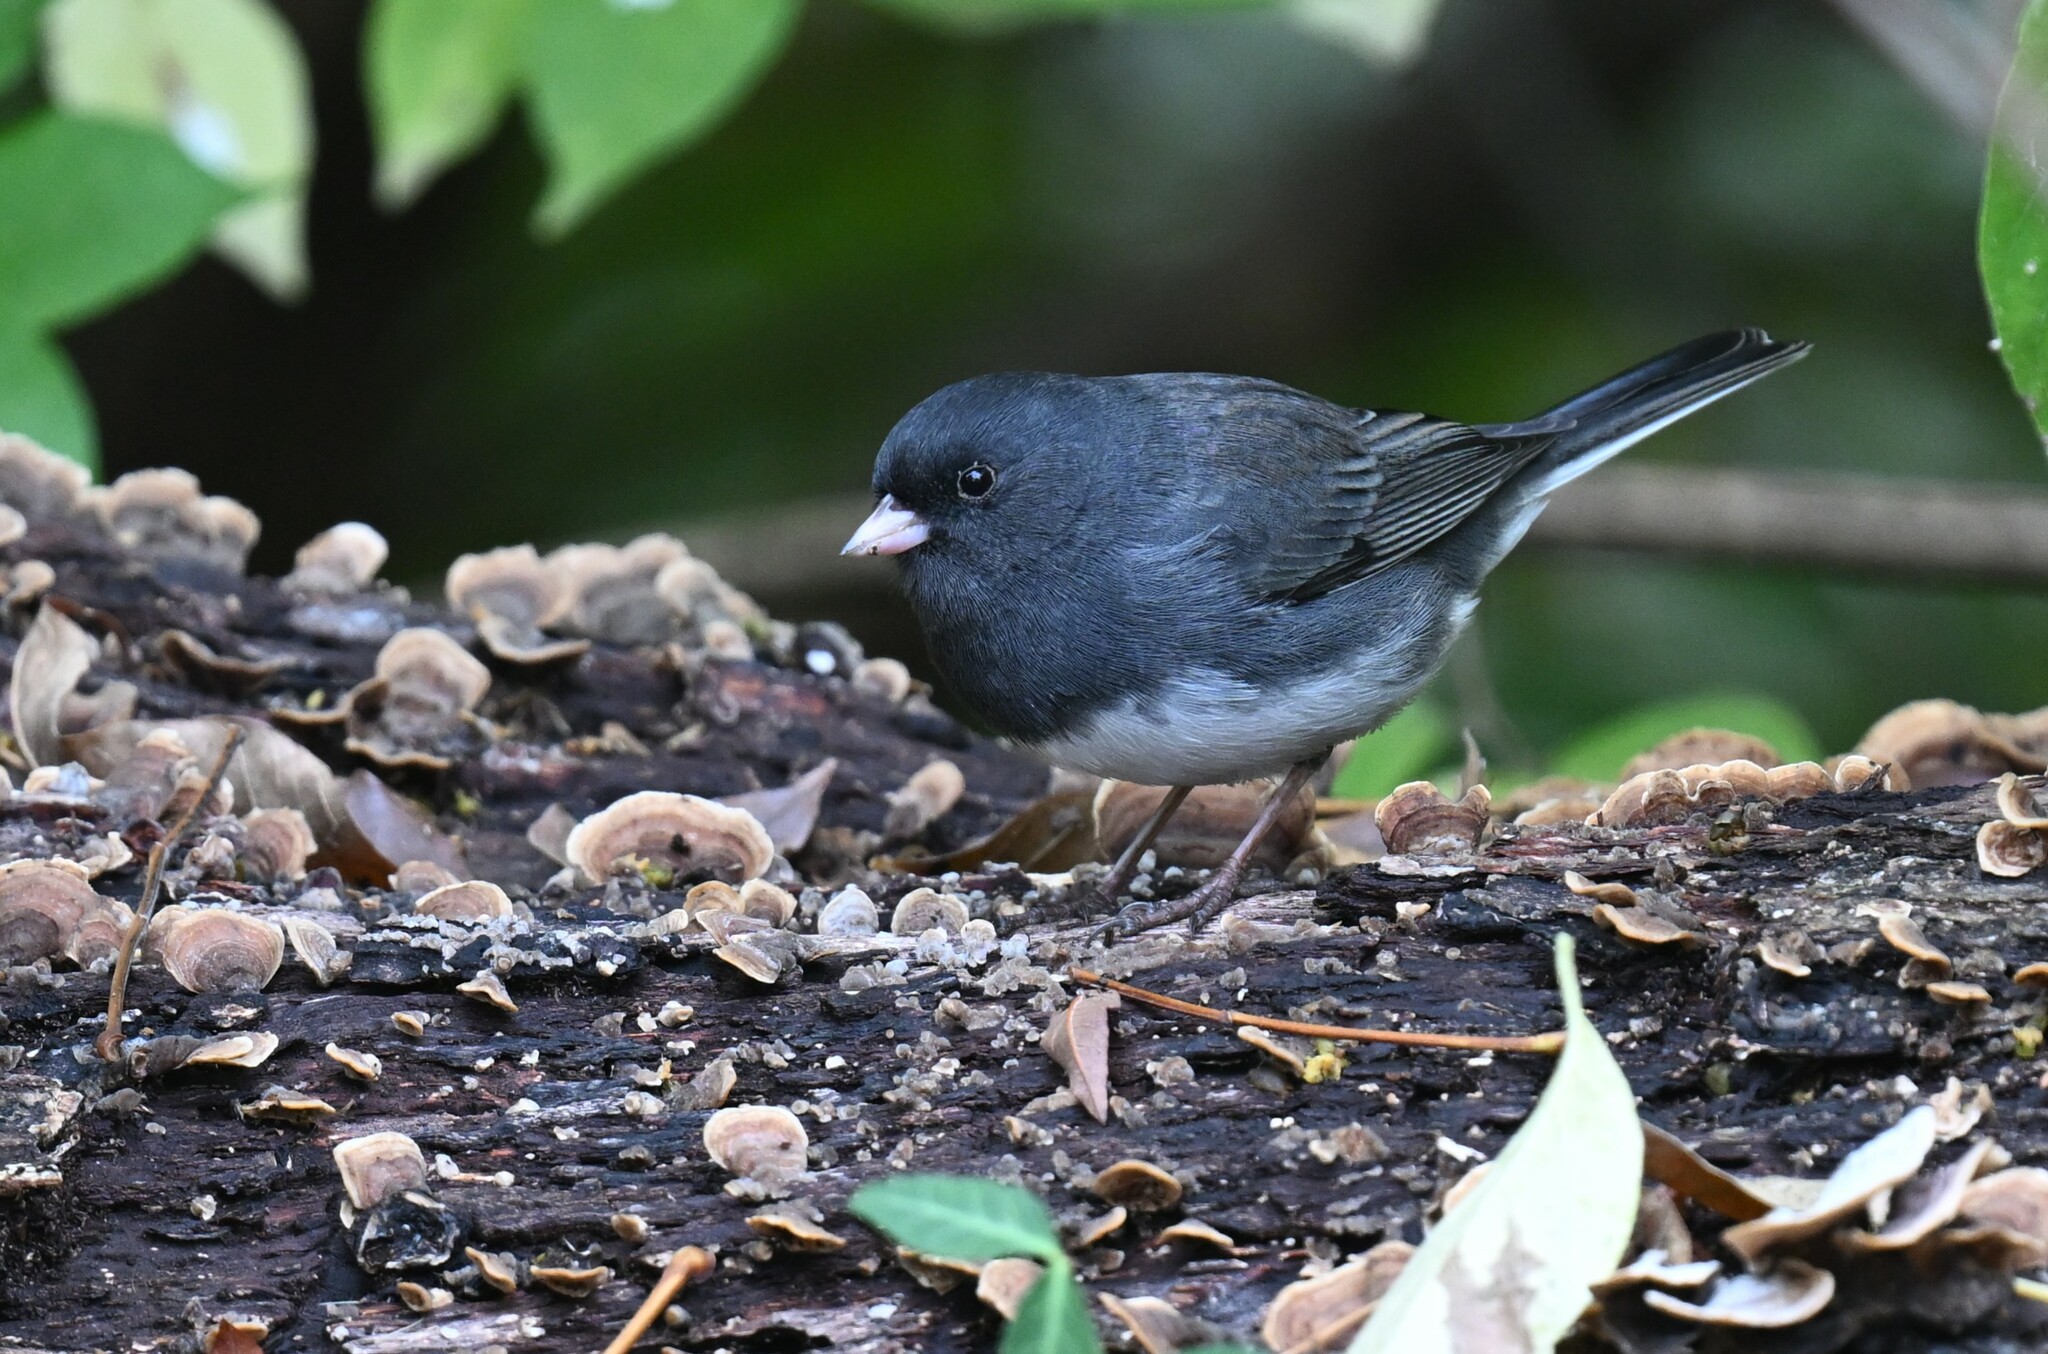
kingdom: Animalia
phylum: Chordata
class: Aves
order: Passeriformes
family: Passerellidae
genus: Junco
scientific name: Junco hyemalis
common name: Dark-eyed junco
